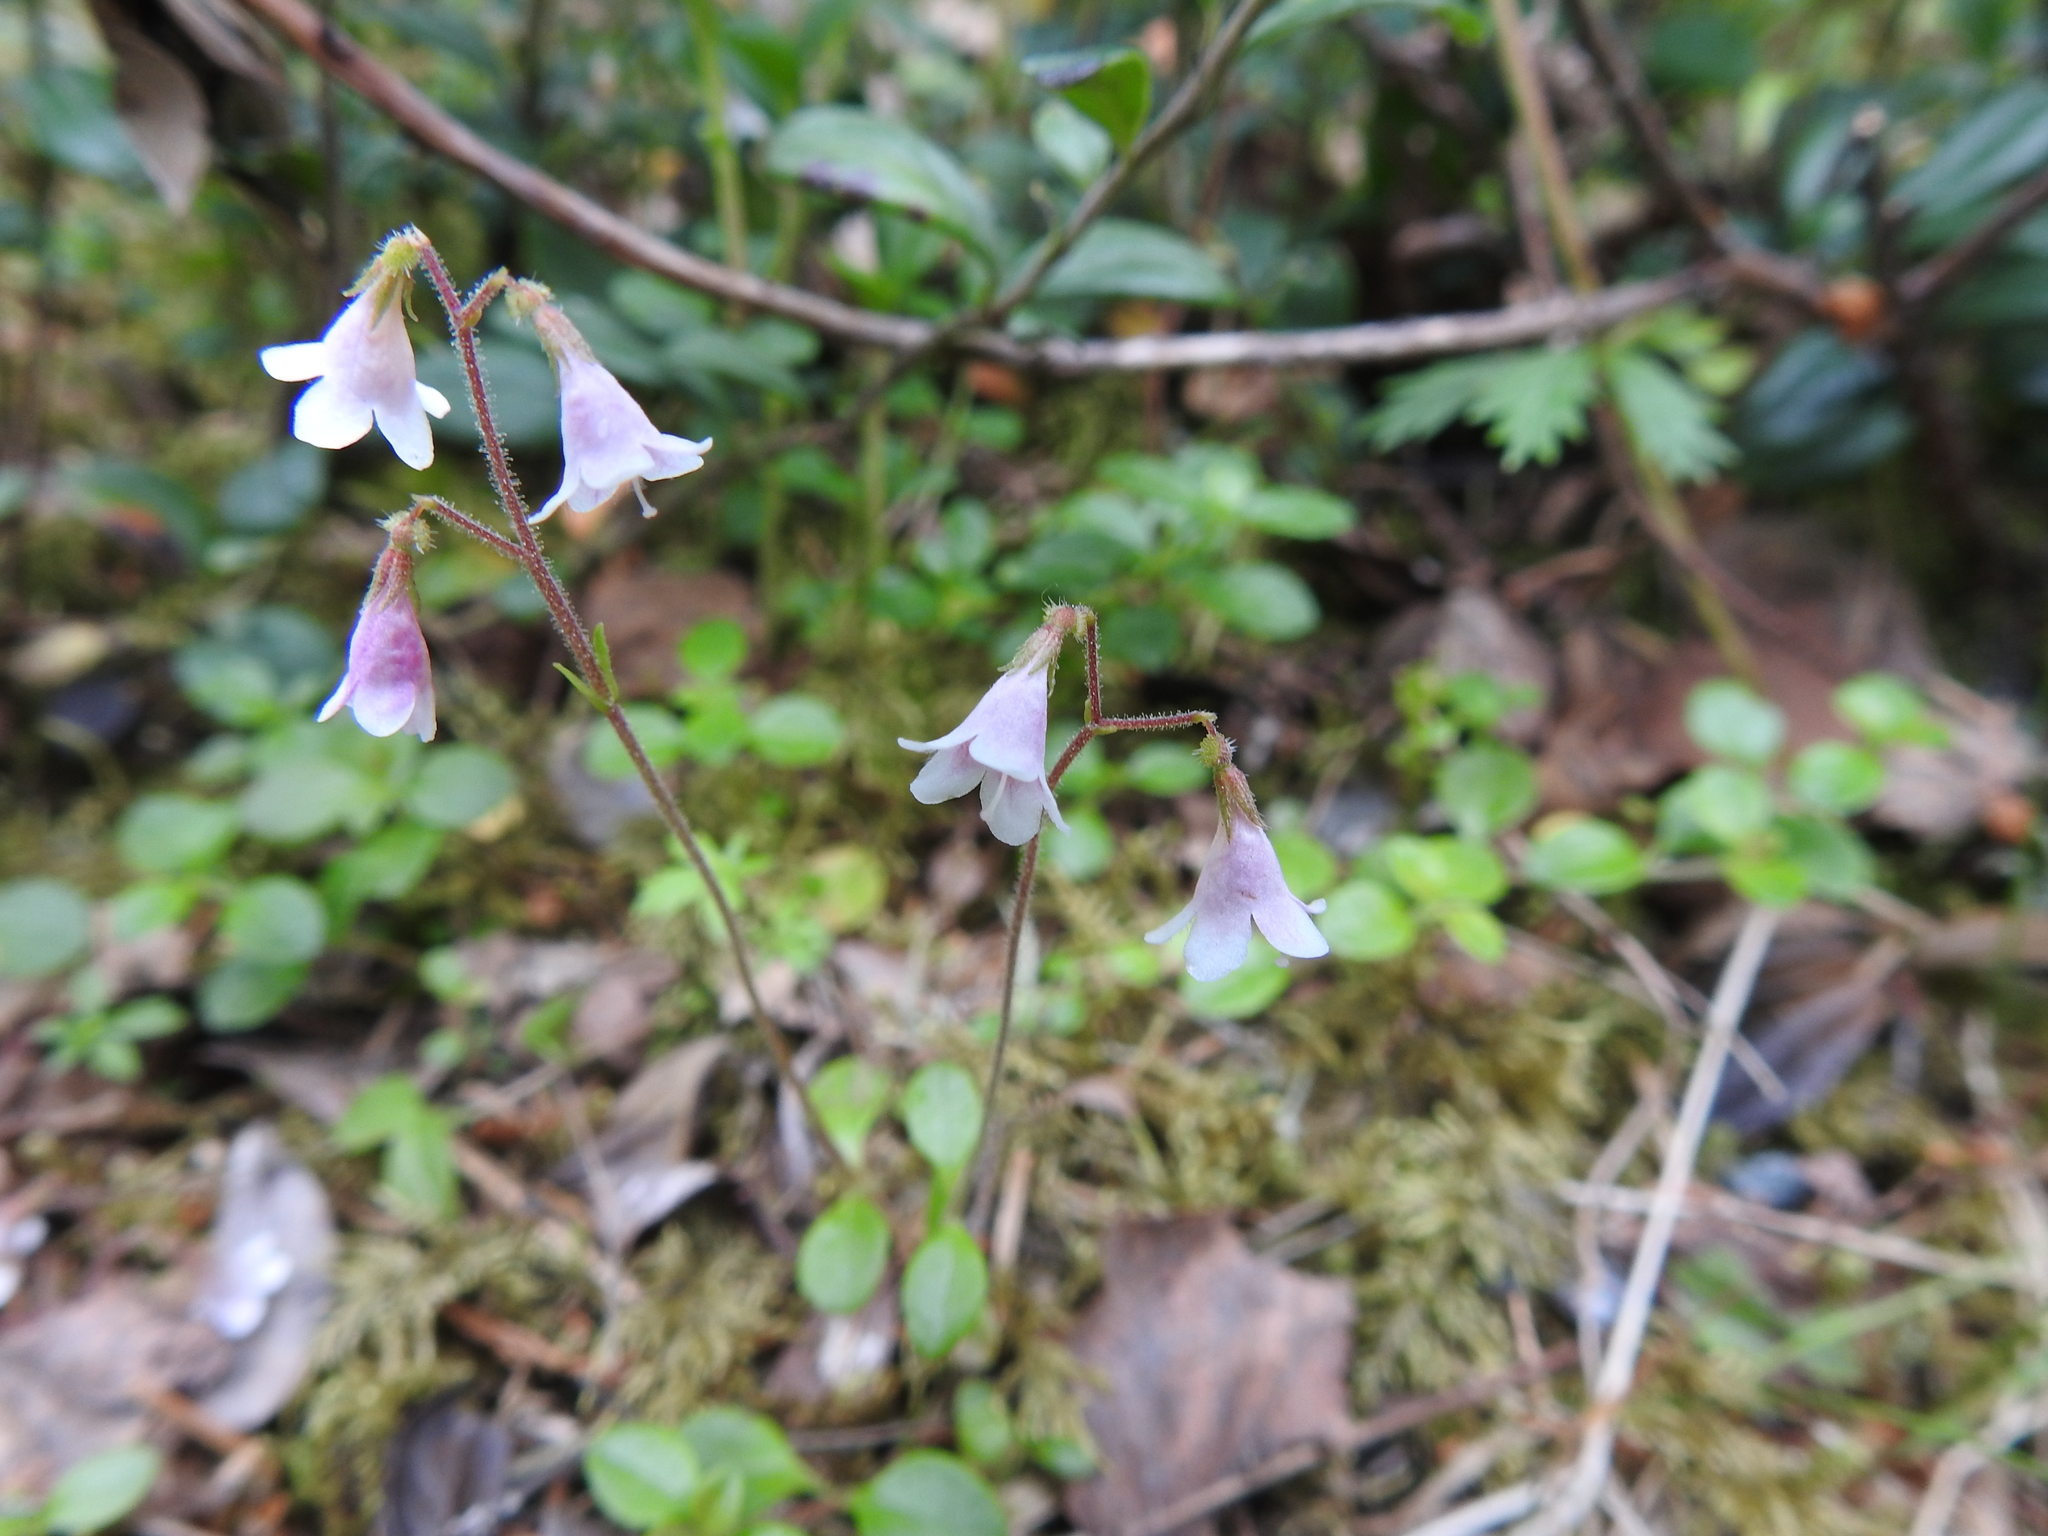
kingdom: Plantae
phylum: Tracheophyta
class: Magnoliopsida
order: Dipsacales
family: Caprifoliaceae
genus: Linnaea
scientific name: Linnaea borealis
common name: Twinflower
